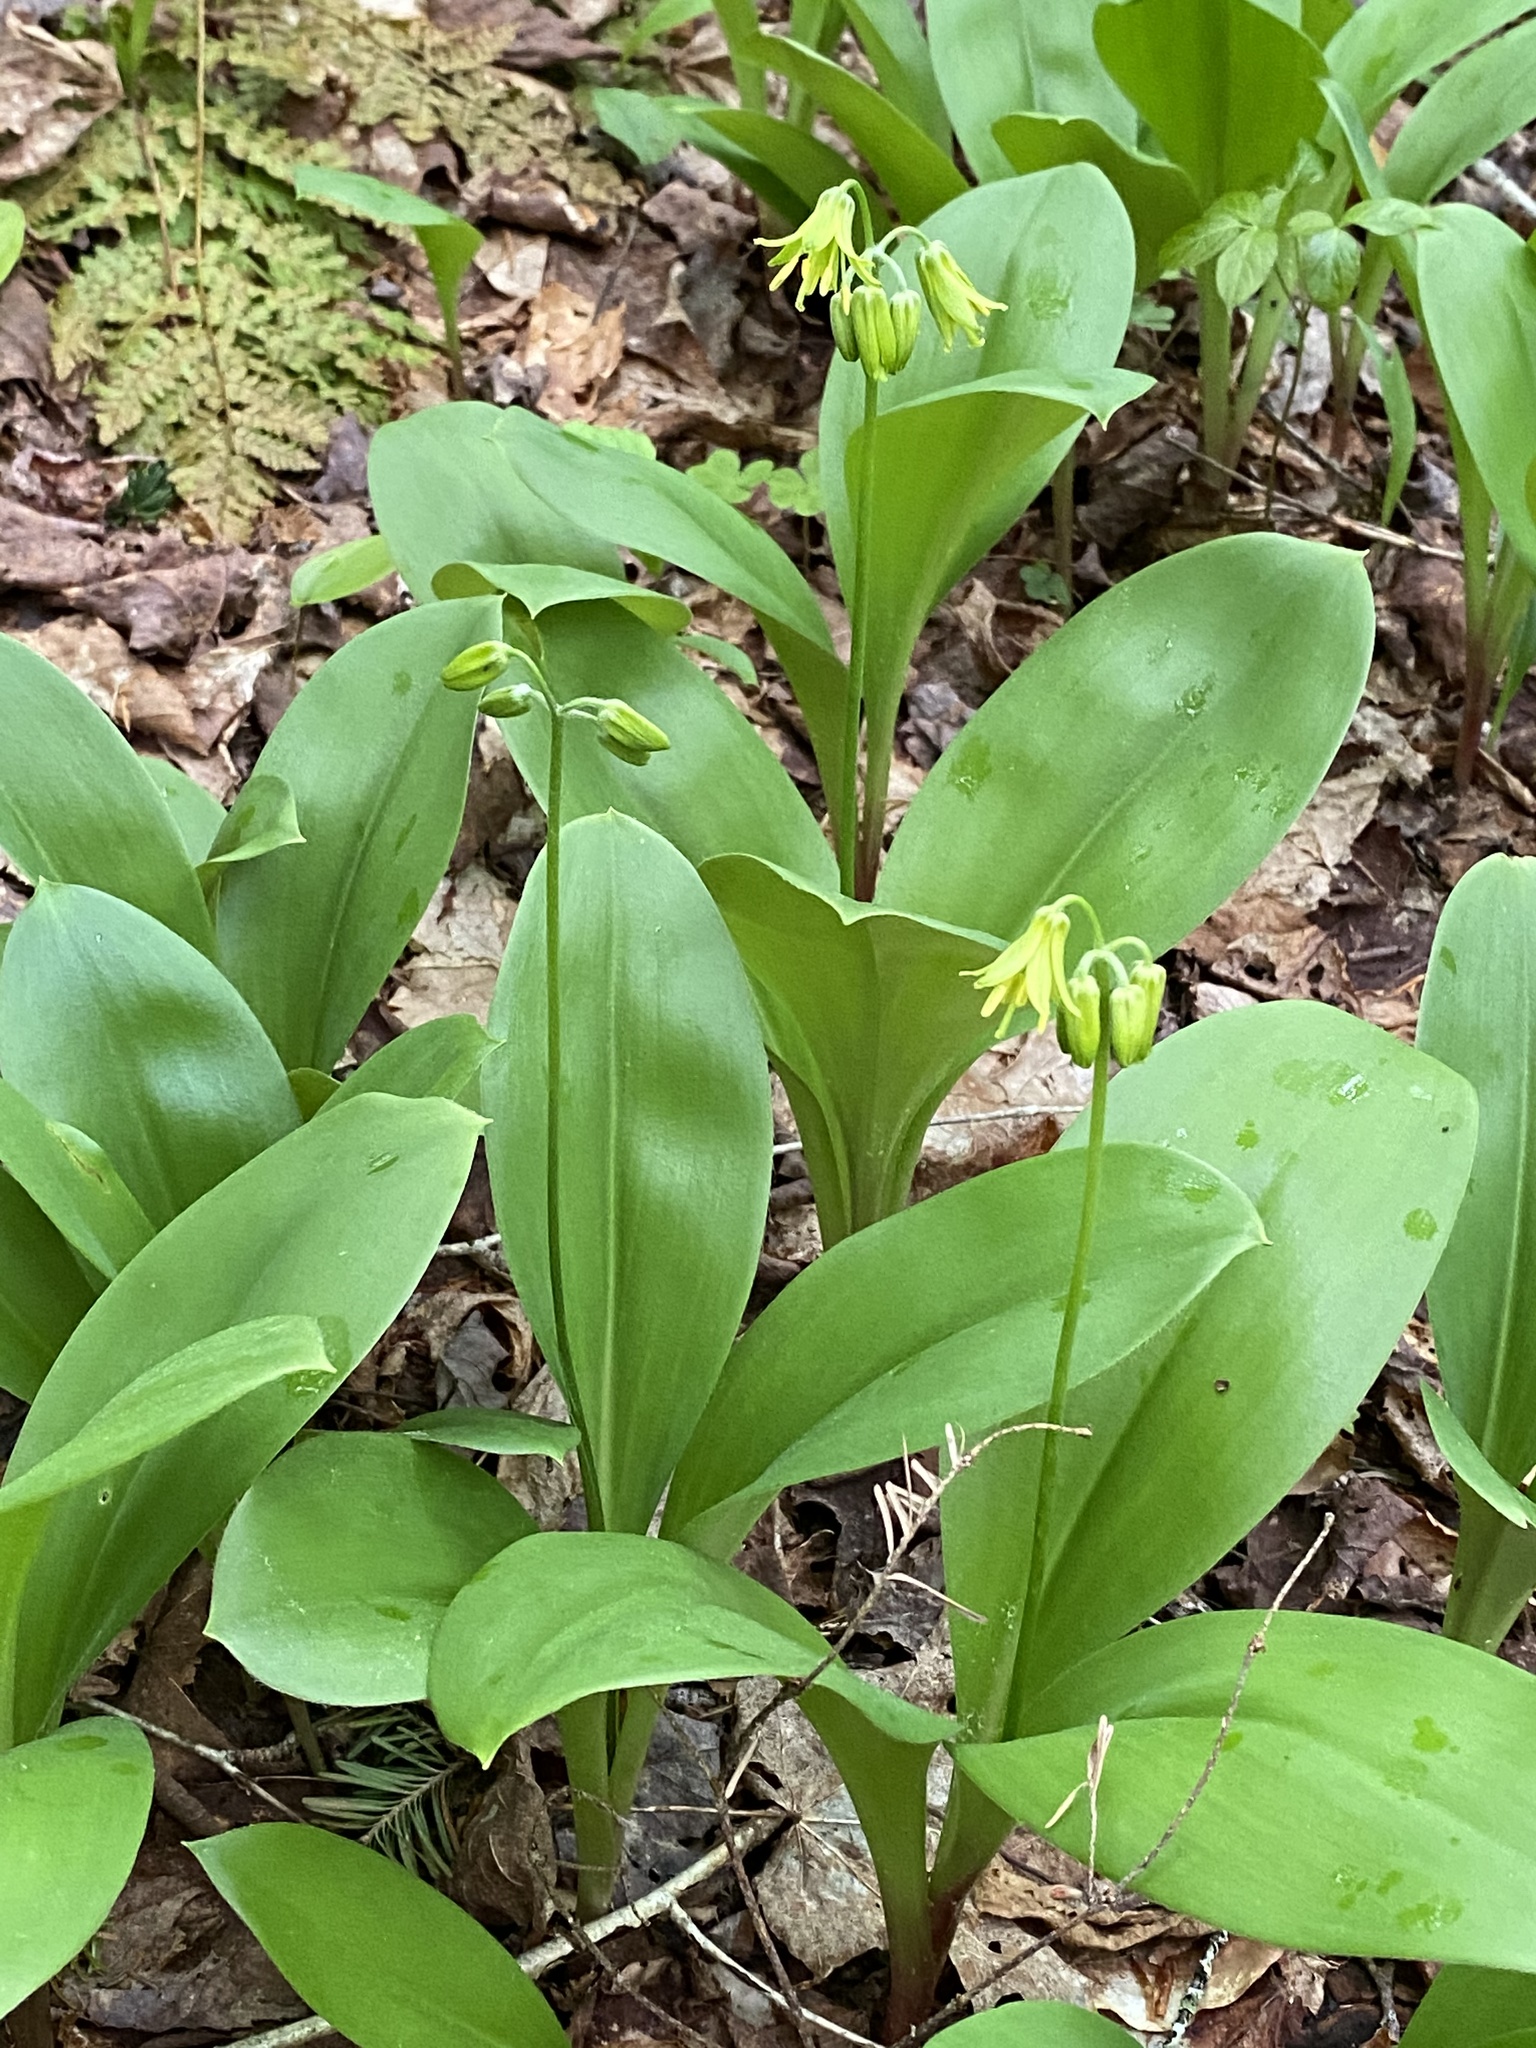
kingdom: Plantae
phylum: Tracheophyta
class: Liliopsida
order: Liliales
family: Liliaceae
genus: Clintonia
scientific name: Clintonia borealis
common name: Yellow clintonia
